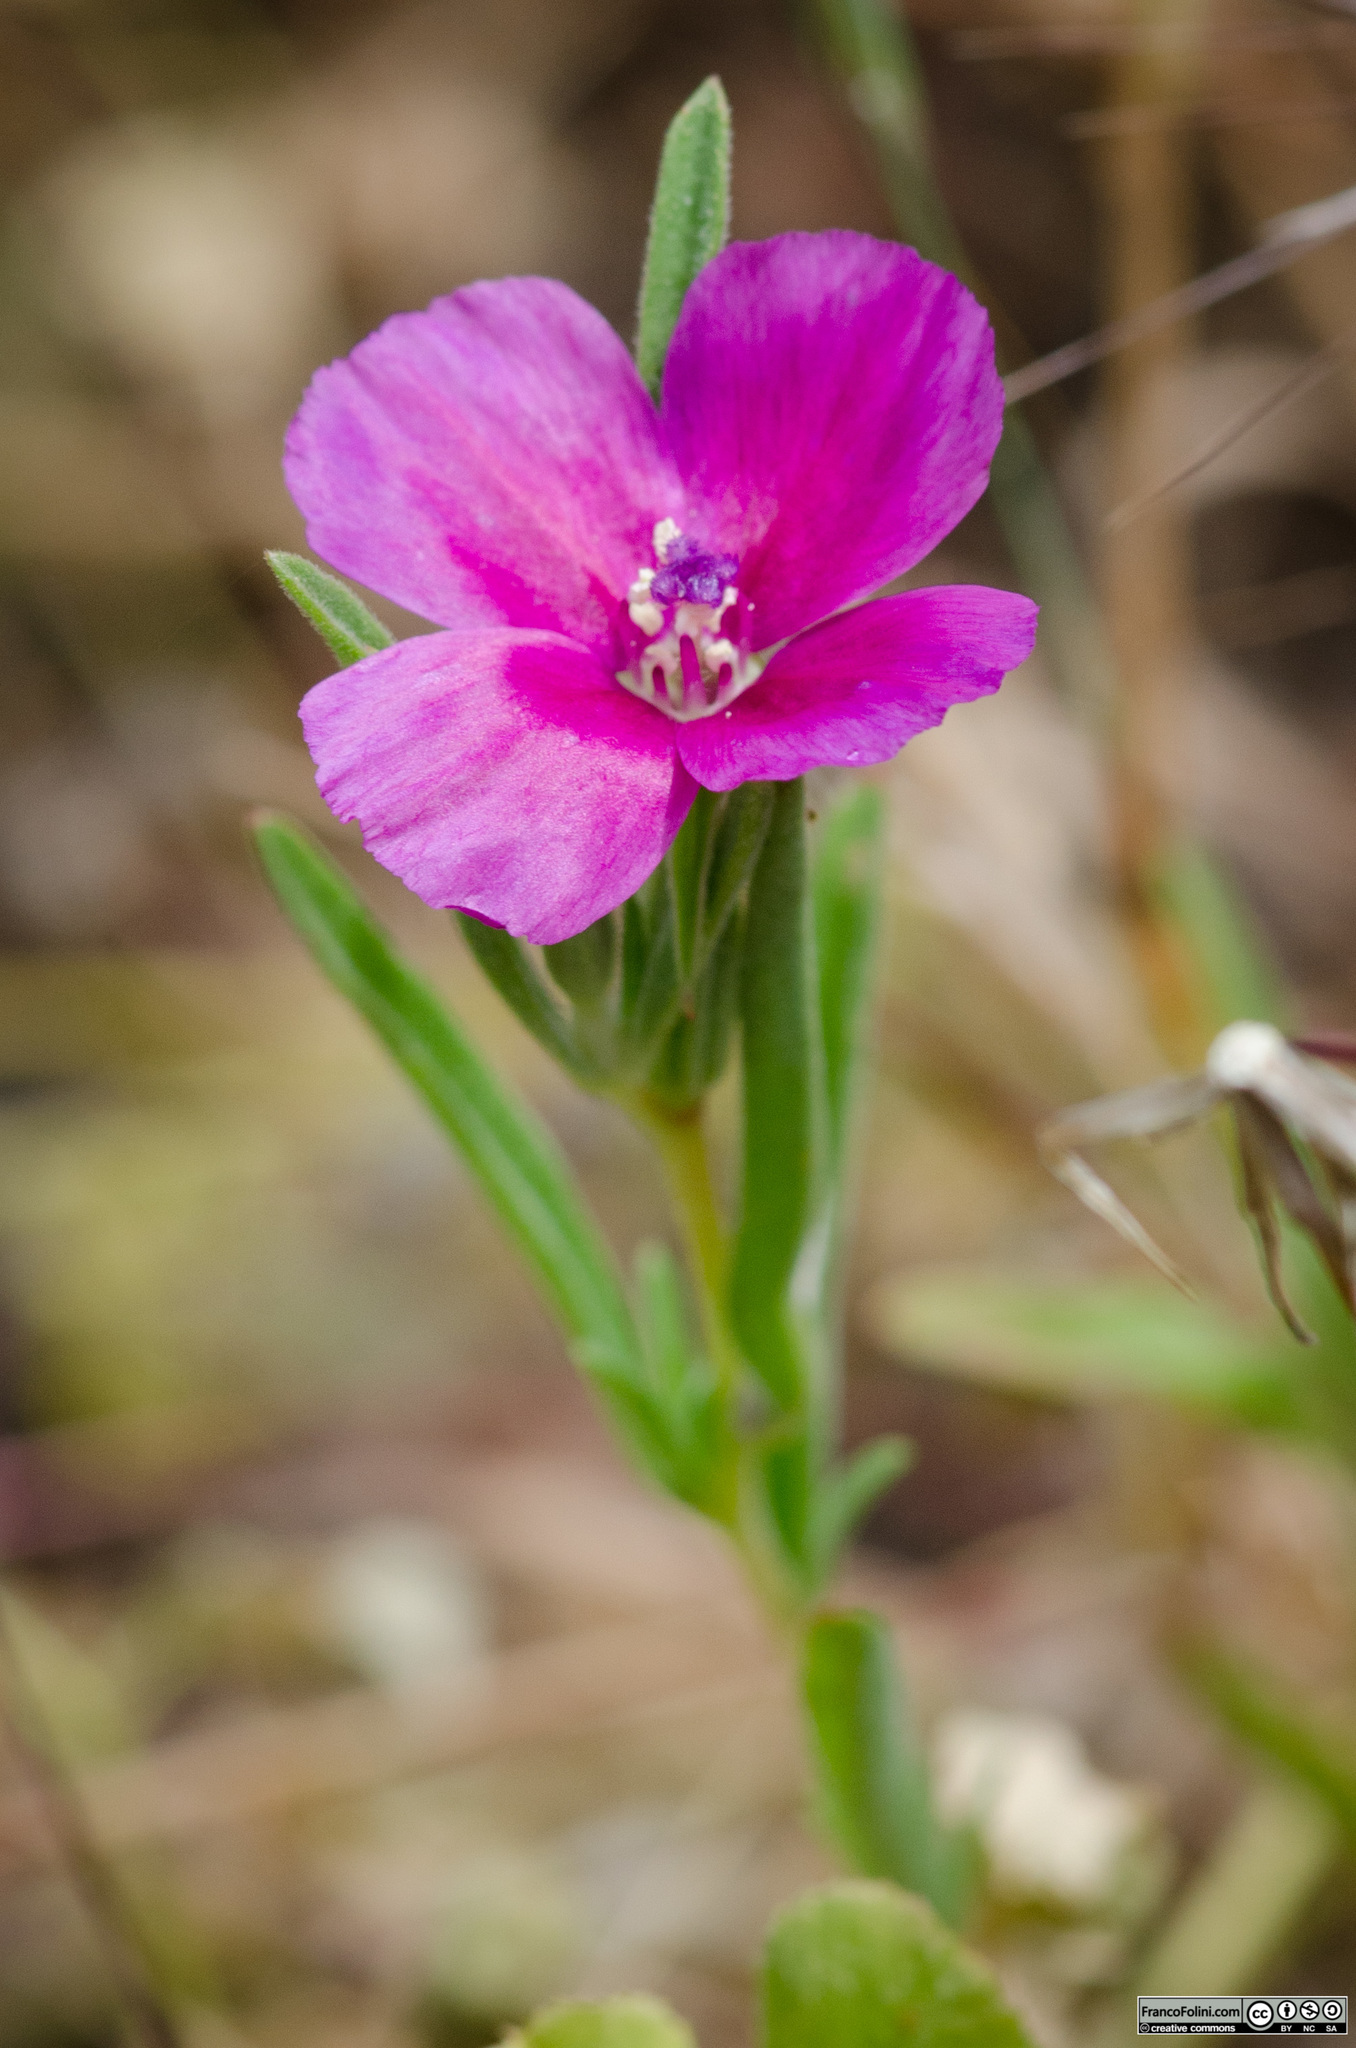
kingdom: Plantae
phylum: Tracheophyta
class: Magnoliopsida
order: Myrtales
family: Onagraceae
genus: Clarkia
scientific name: Clarkia purpurea
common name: Purple clarkia
